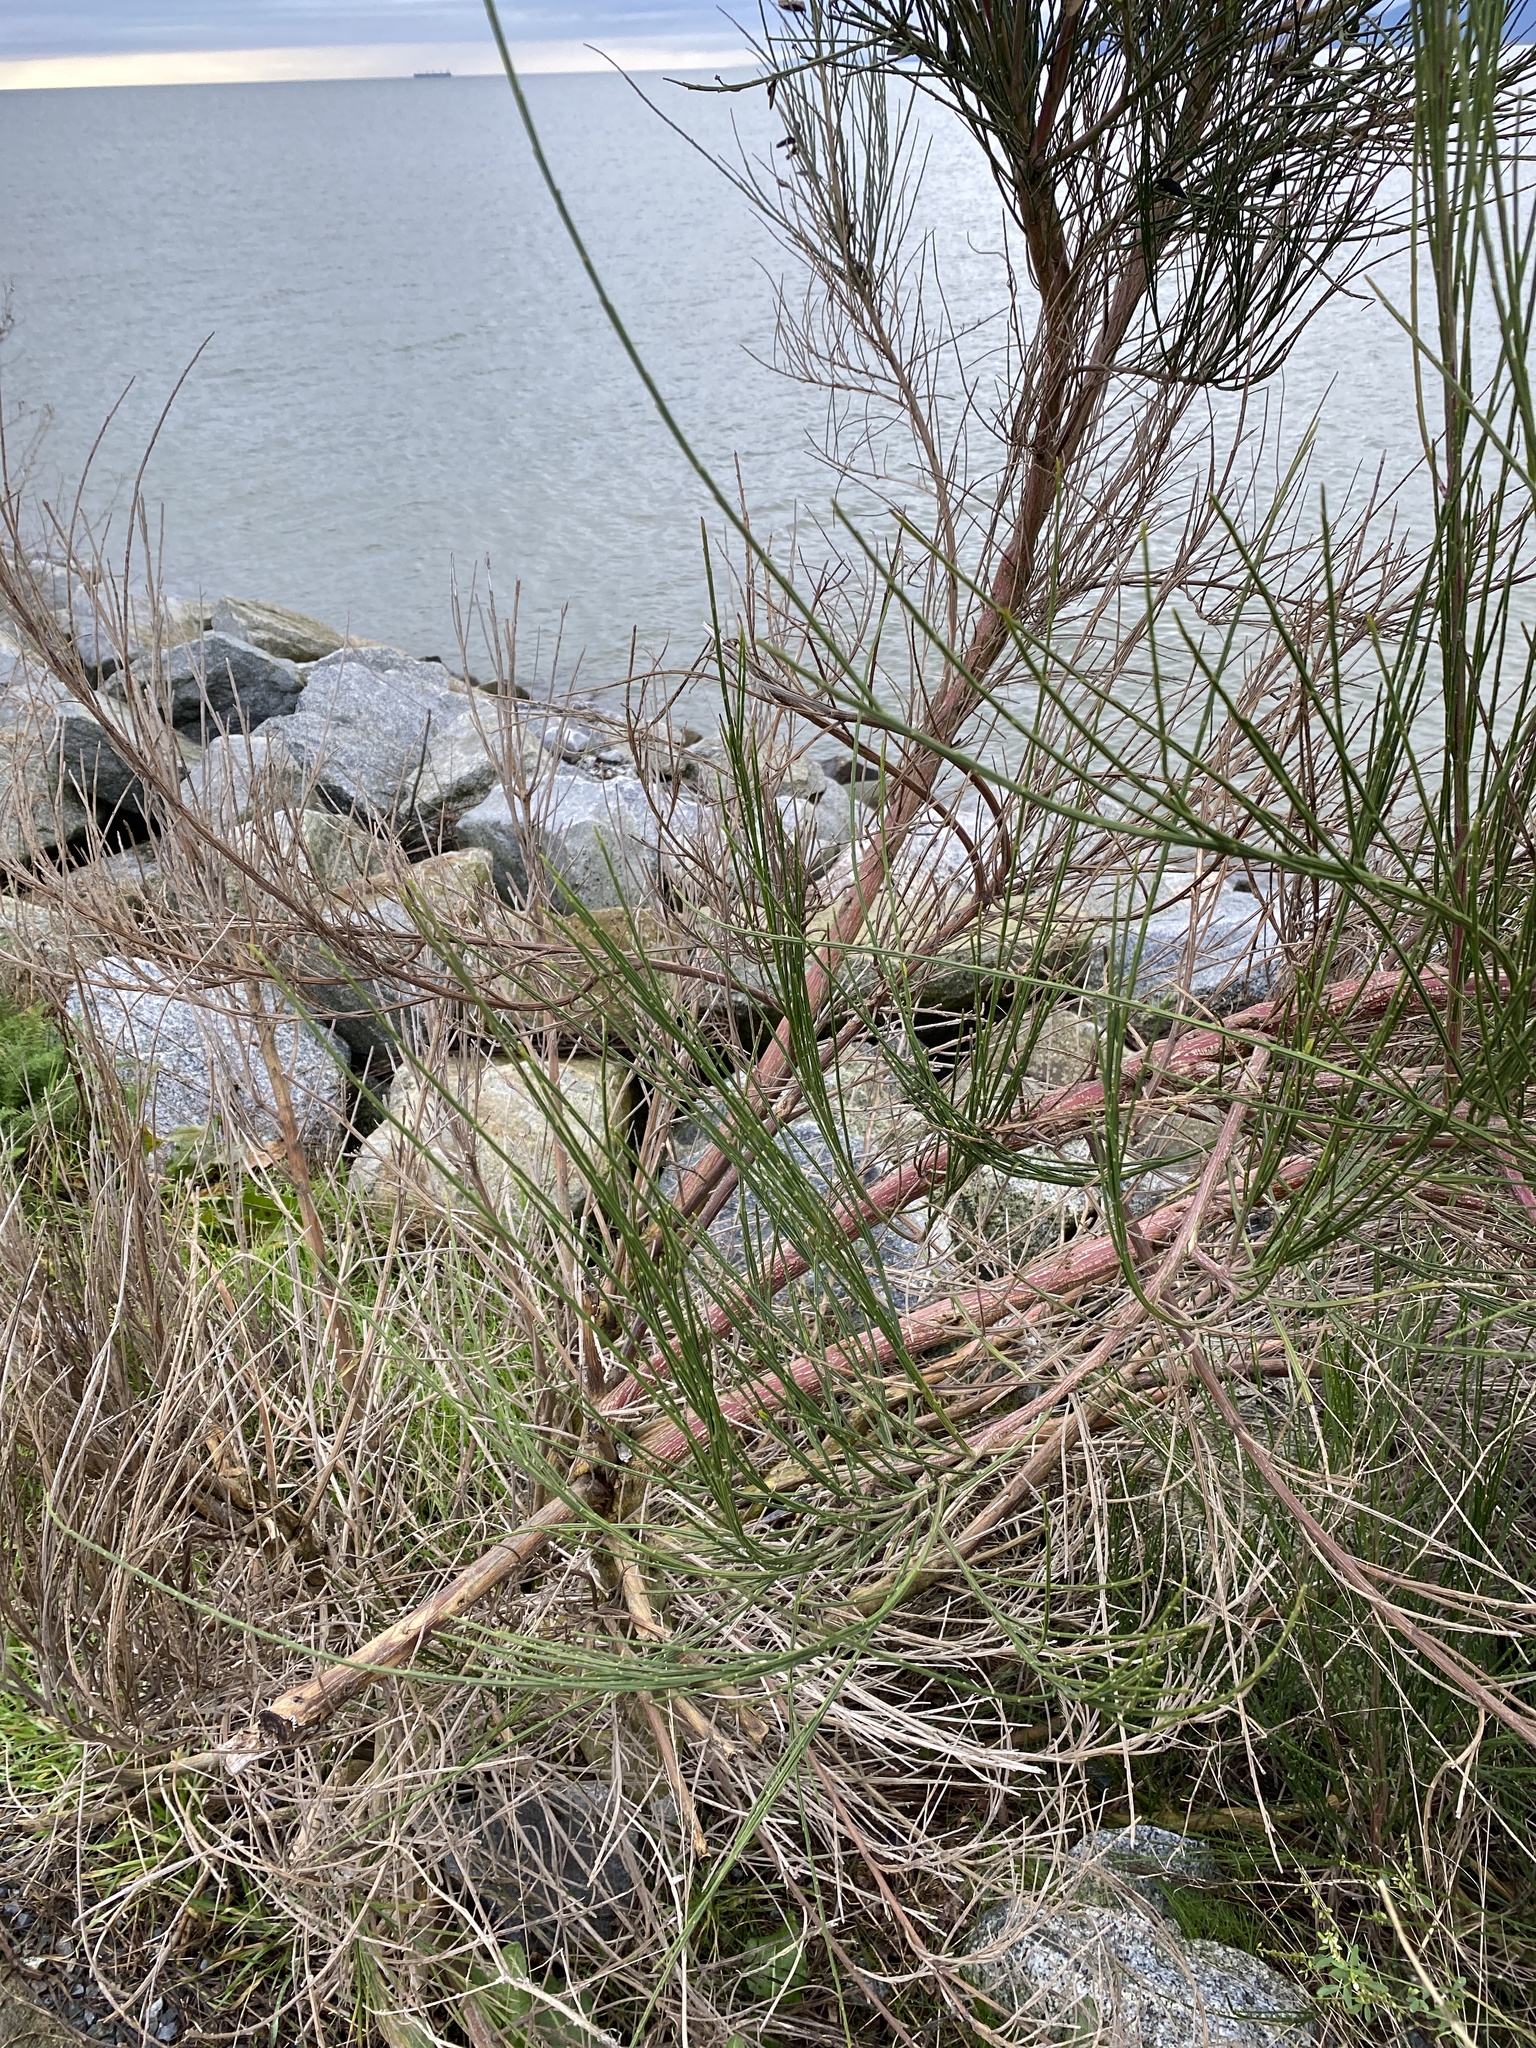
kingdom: Plantae
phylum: Tracheophyta
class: Magnoliopsida
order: Fabales
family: Fabaceae
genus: Cytisus
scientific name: Cytisus scoparius
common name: Scotch broom
